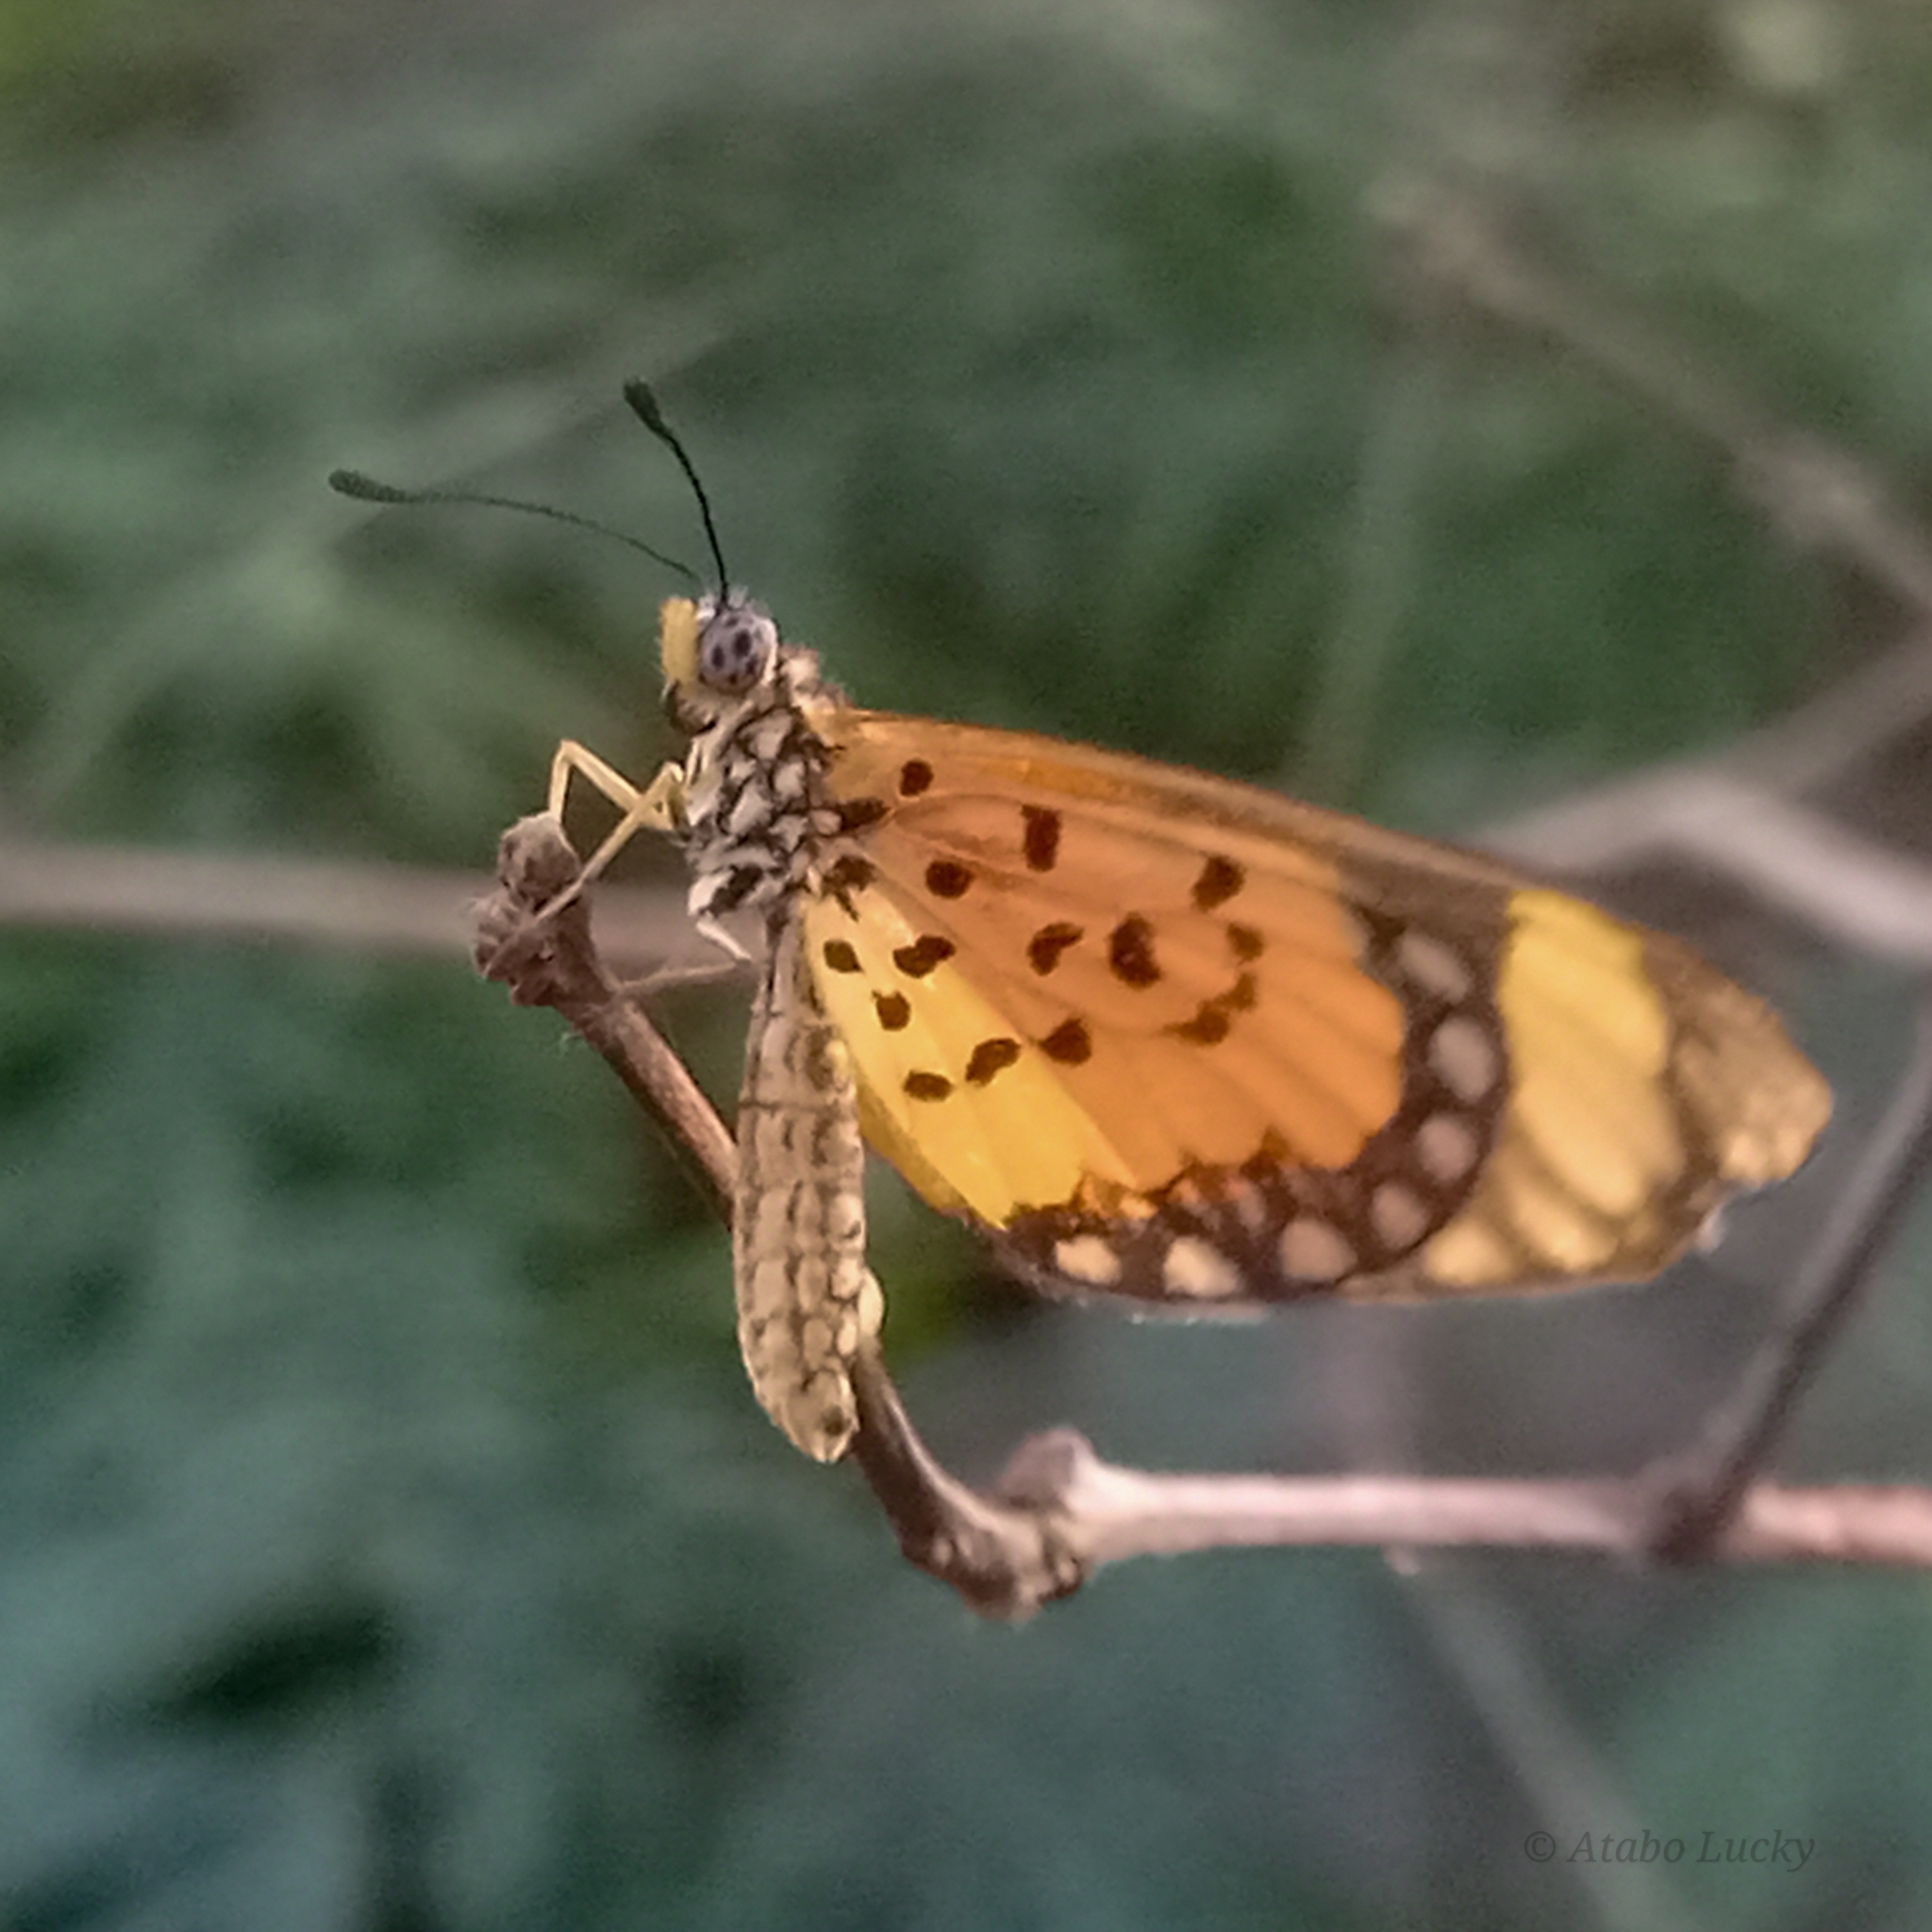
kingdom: Animalia
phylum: Arthropoda
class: Insecta
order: Lepidoptera
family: Nymphalidae
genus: Acraea
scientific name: Acraea Telchinia serena
